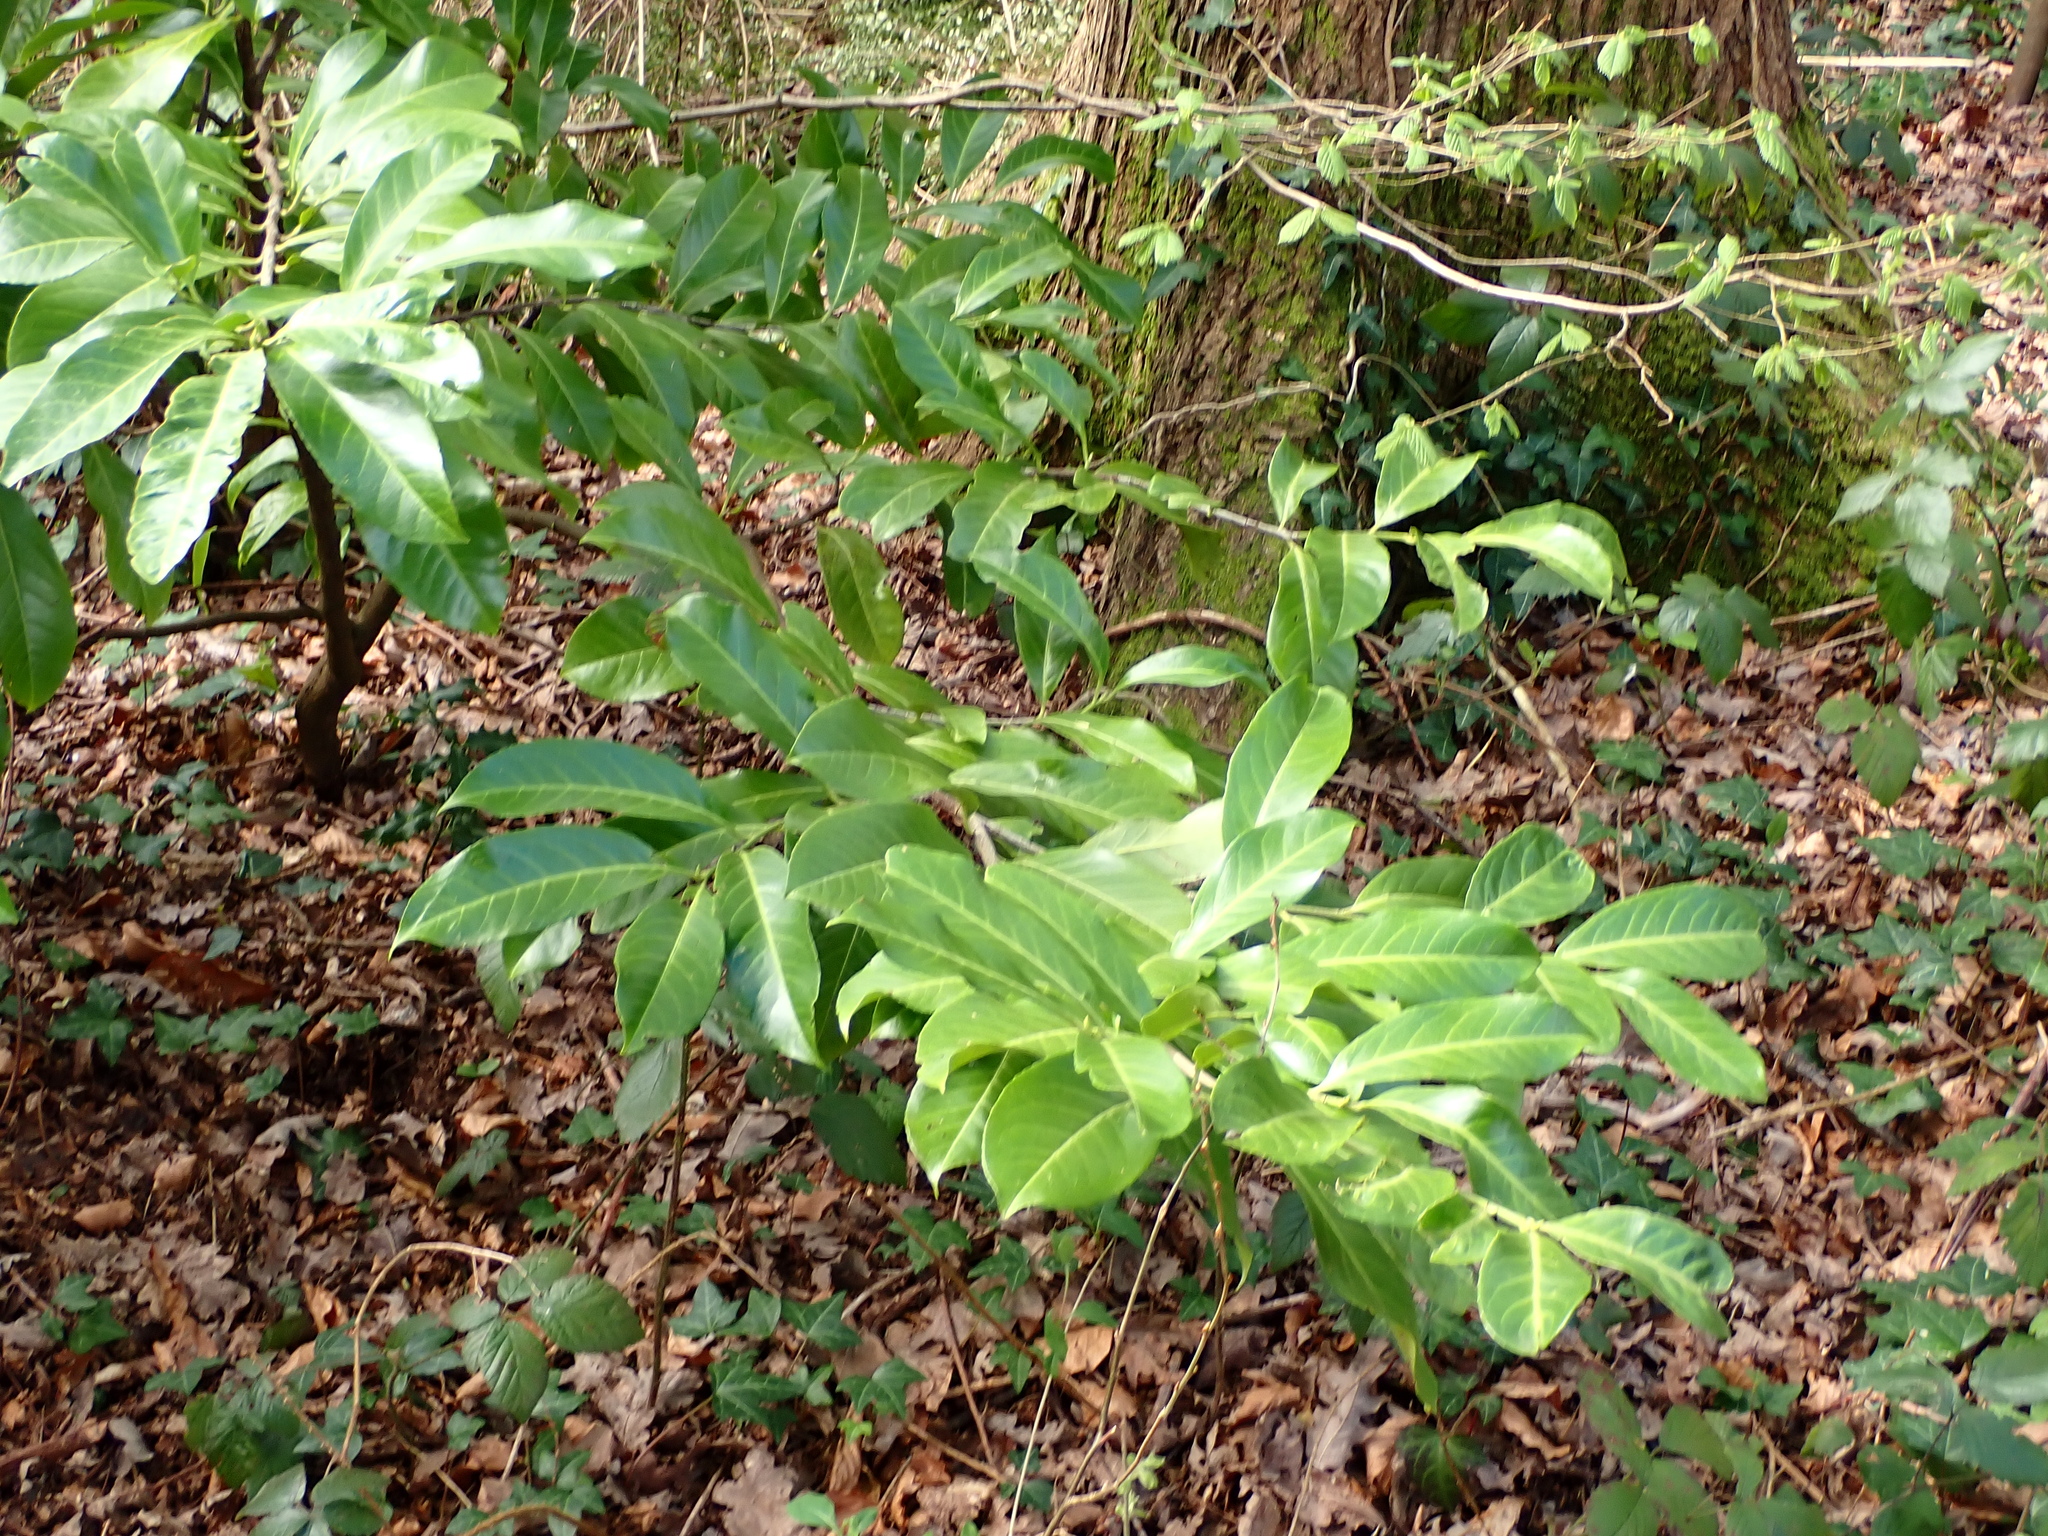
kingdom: Plantae
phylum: Tracheophyta
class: Magnoliopsida
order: Rosales
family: Rosaceae
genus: Prunus
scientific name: Prunus laurocerasus
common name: Cherry laurel
